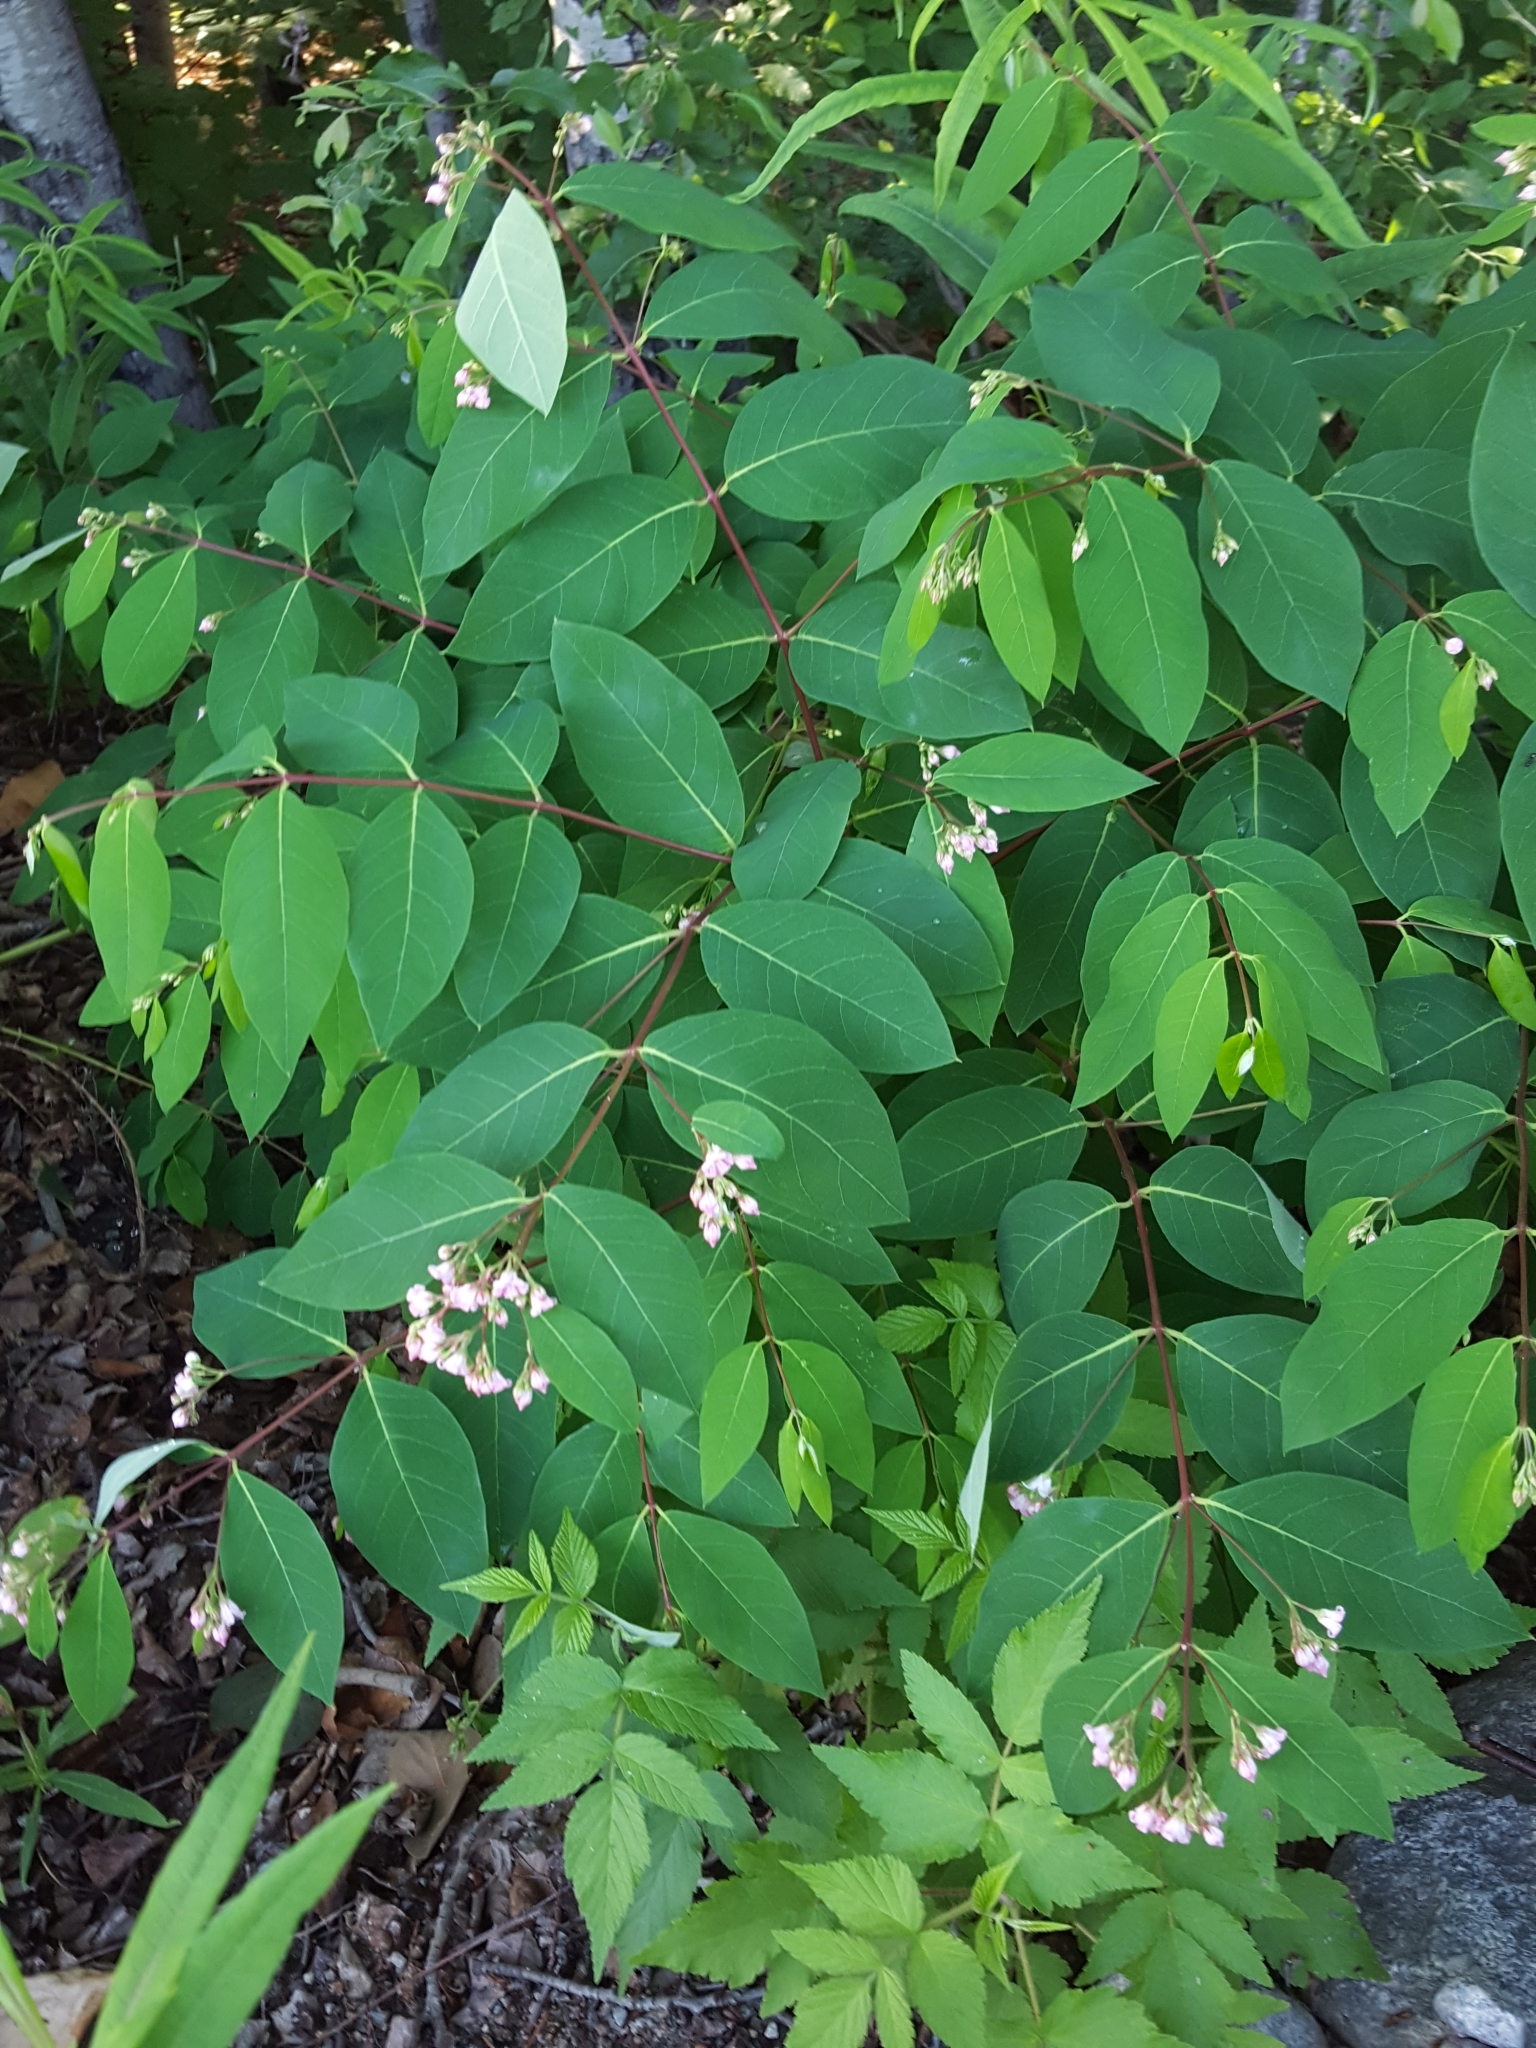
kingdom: Plantae
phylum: Tracheophyta
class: Magnoliopsida
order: Gentianales
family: Apocynaceae
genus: Apocynum
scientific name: Apocynum androsaemifolium
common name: Spreading dogbane
